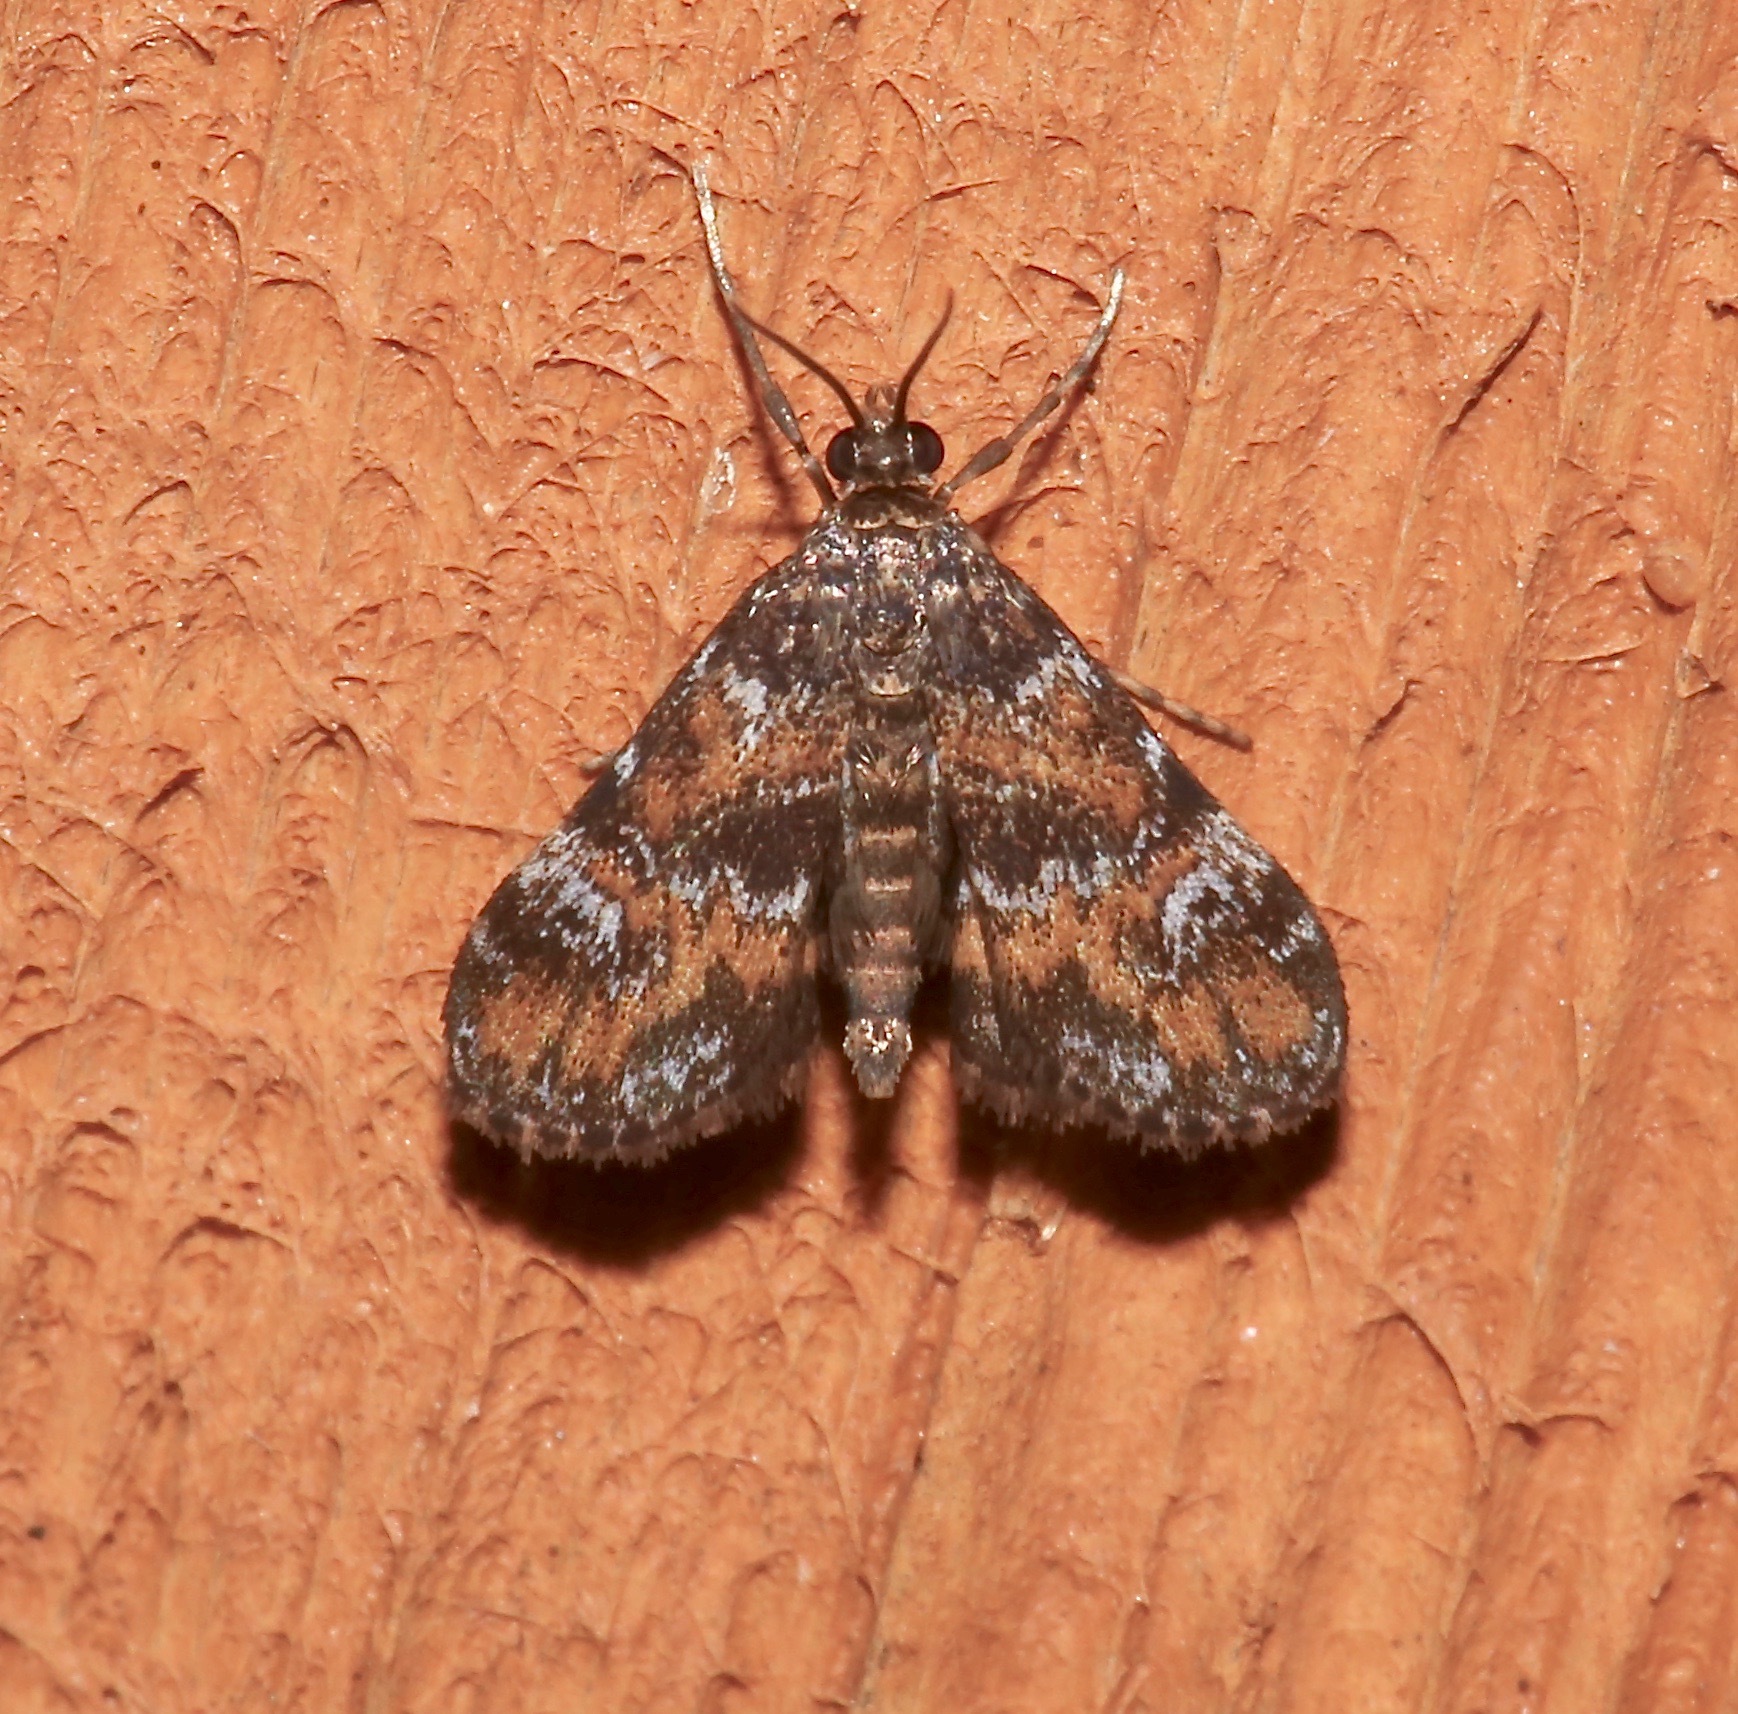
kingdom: Animalia
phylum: Arthropoda
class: Insecta
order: Lepidoptera
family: Crambidae
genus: Elophila
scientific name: Elophila obliteralis
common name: Waterlily leafcutter moth
